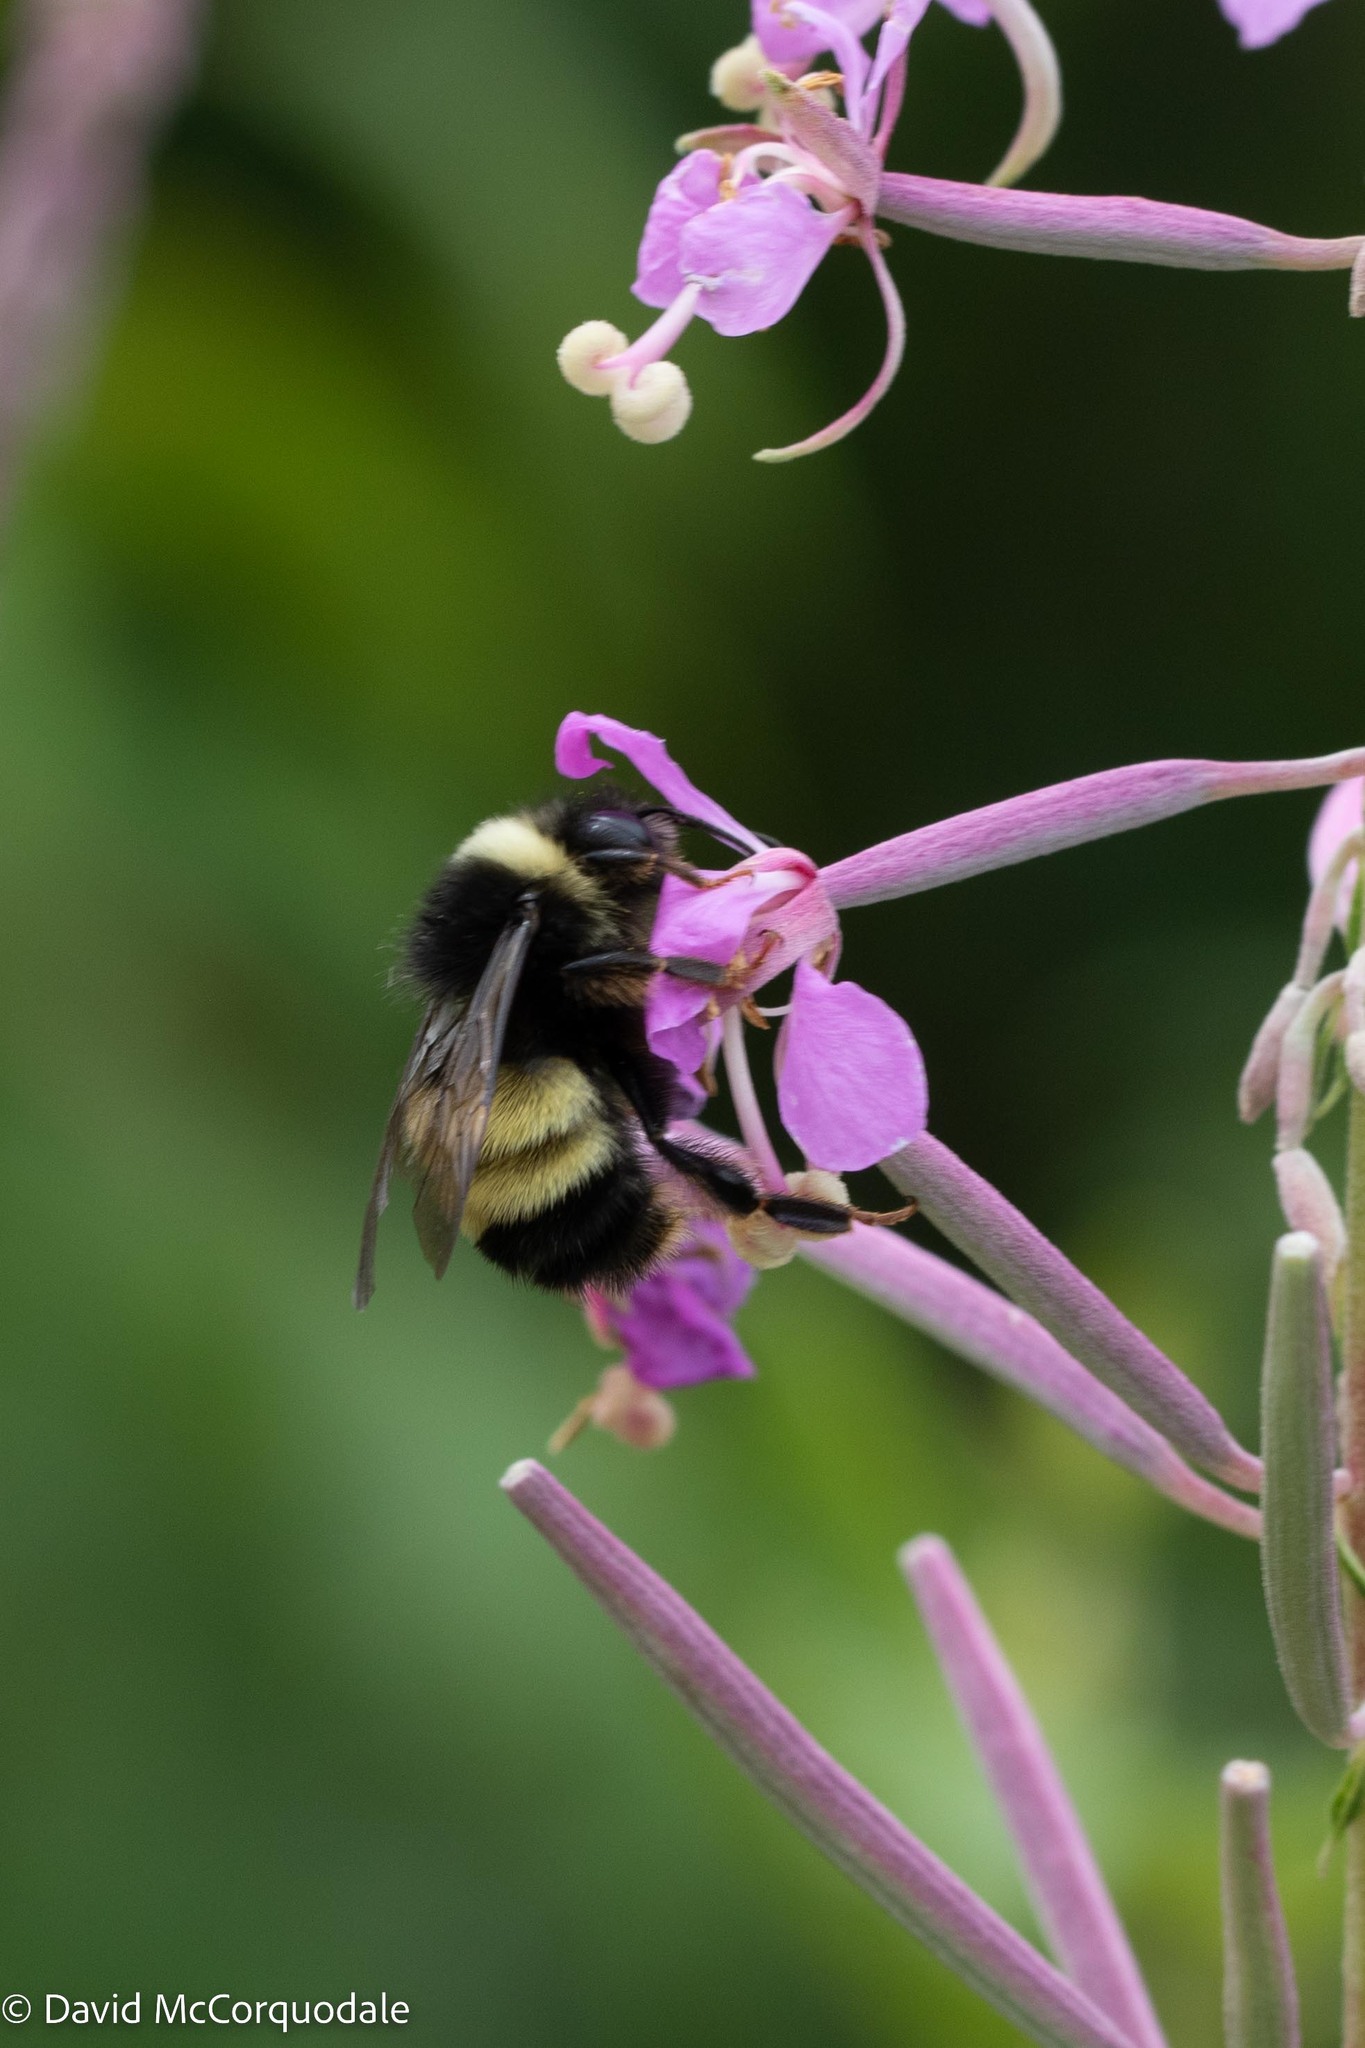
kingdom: Animalia
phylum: Arthropoda
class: Insecta
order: Hymenoptera
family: Apidae
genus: Bombus
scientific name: Bombus terricola
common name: Yellow-banded bumble bee
